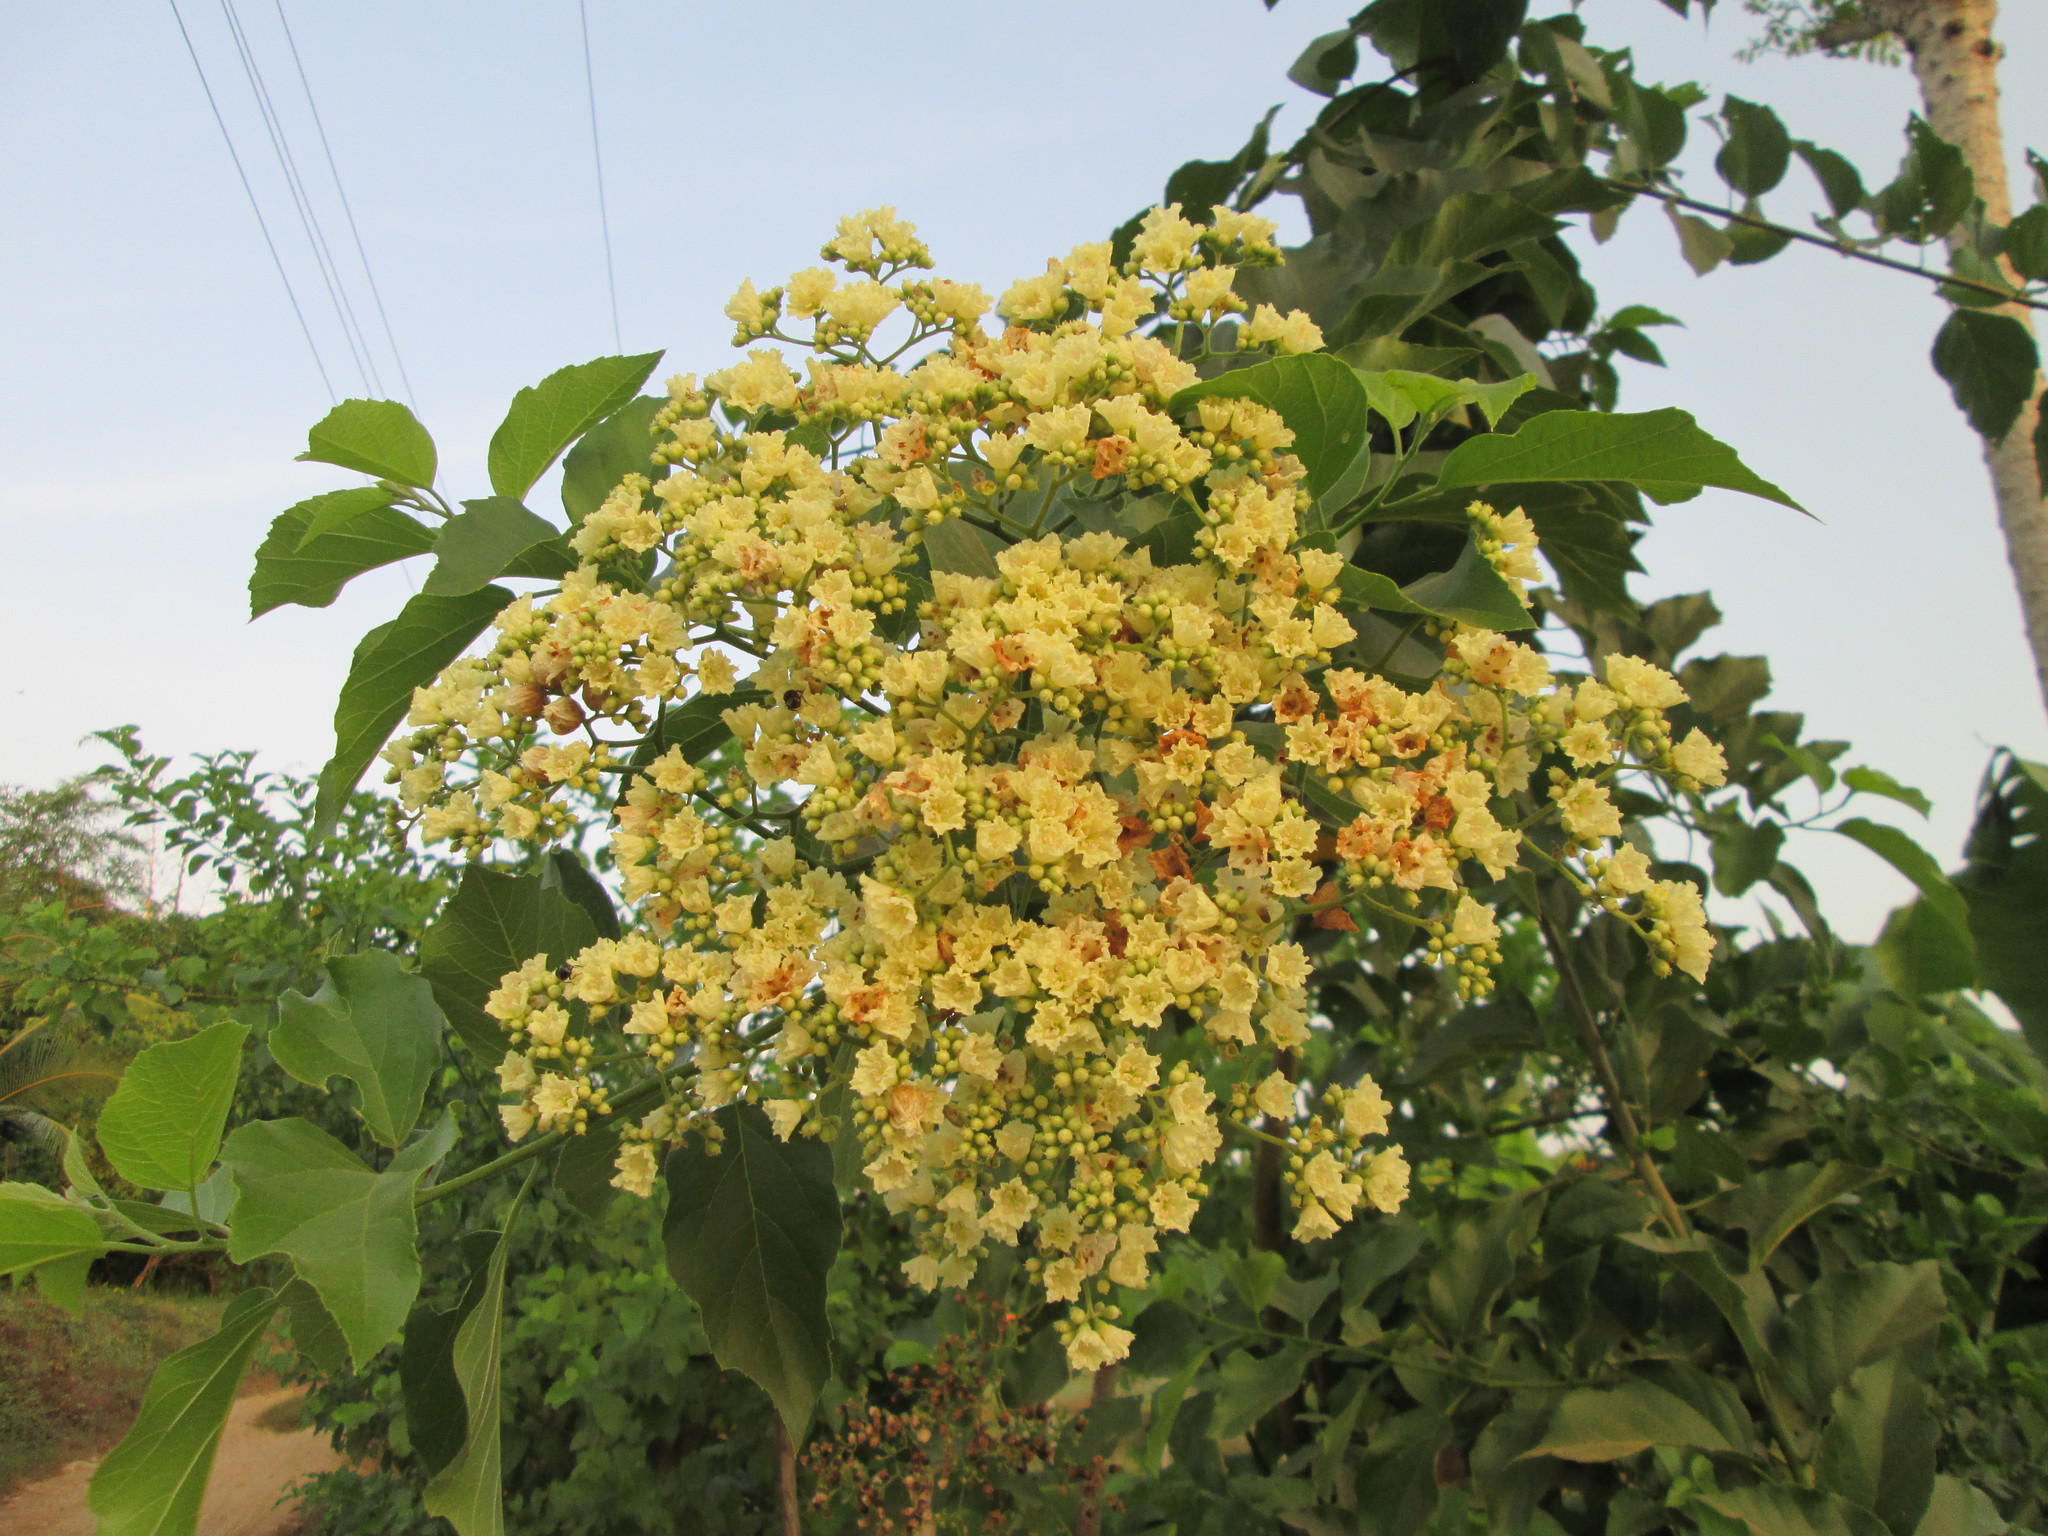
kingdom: Plantae
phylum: Tracheophyta
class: Magnoliopsida
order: Boraginales
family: Cordiaceae
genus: Cordia
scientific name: Cordia dentata
